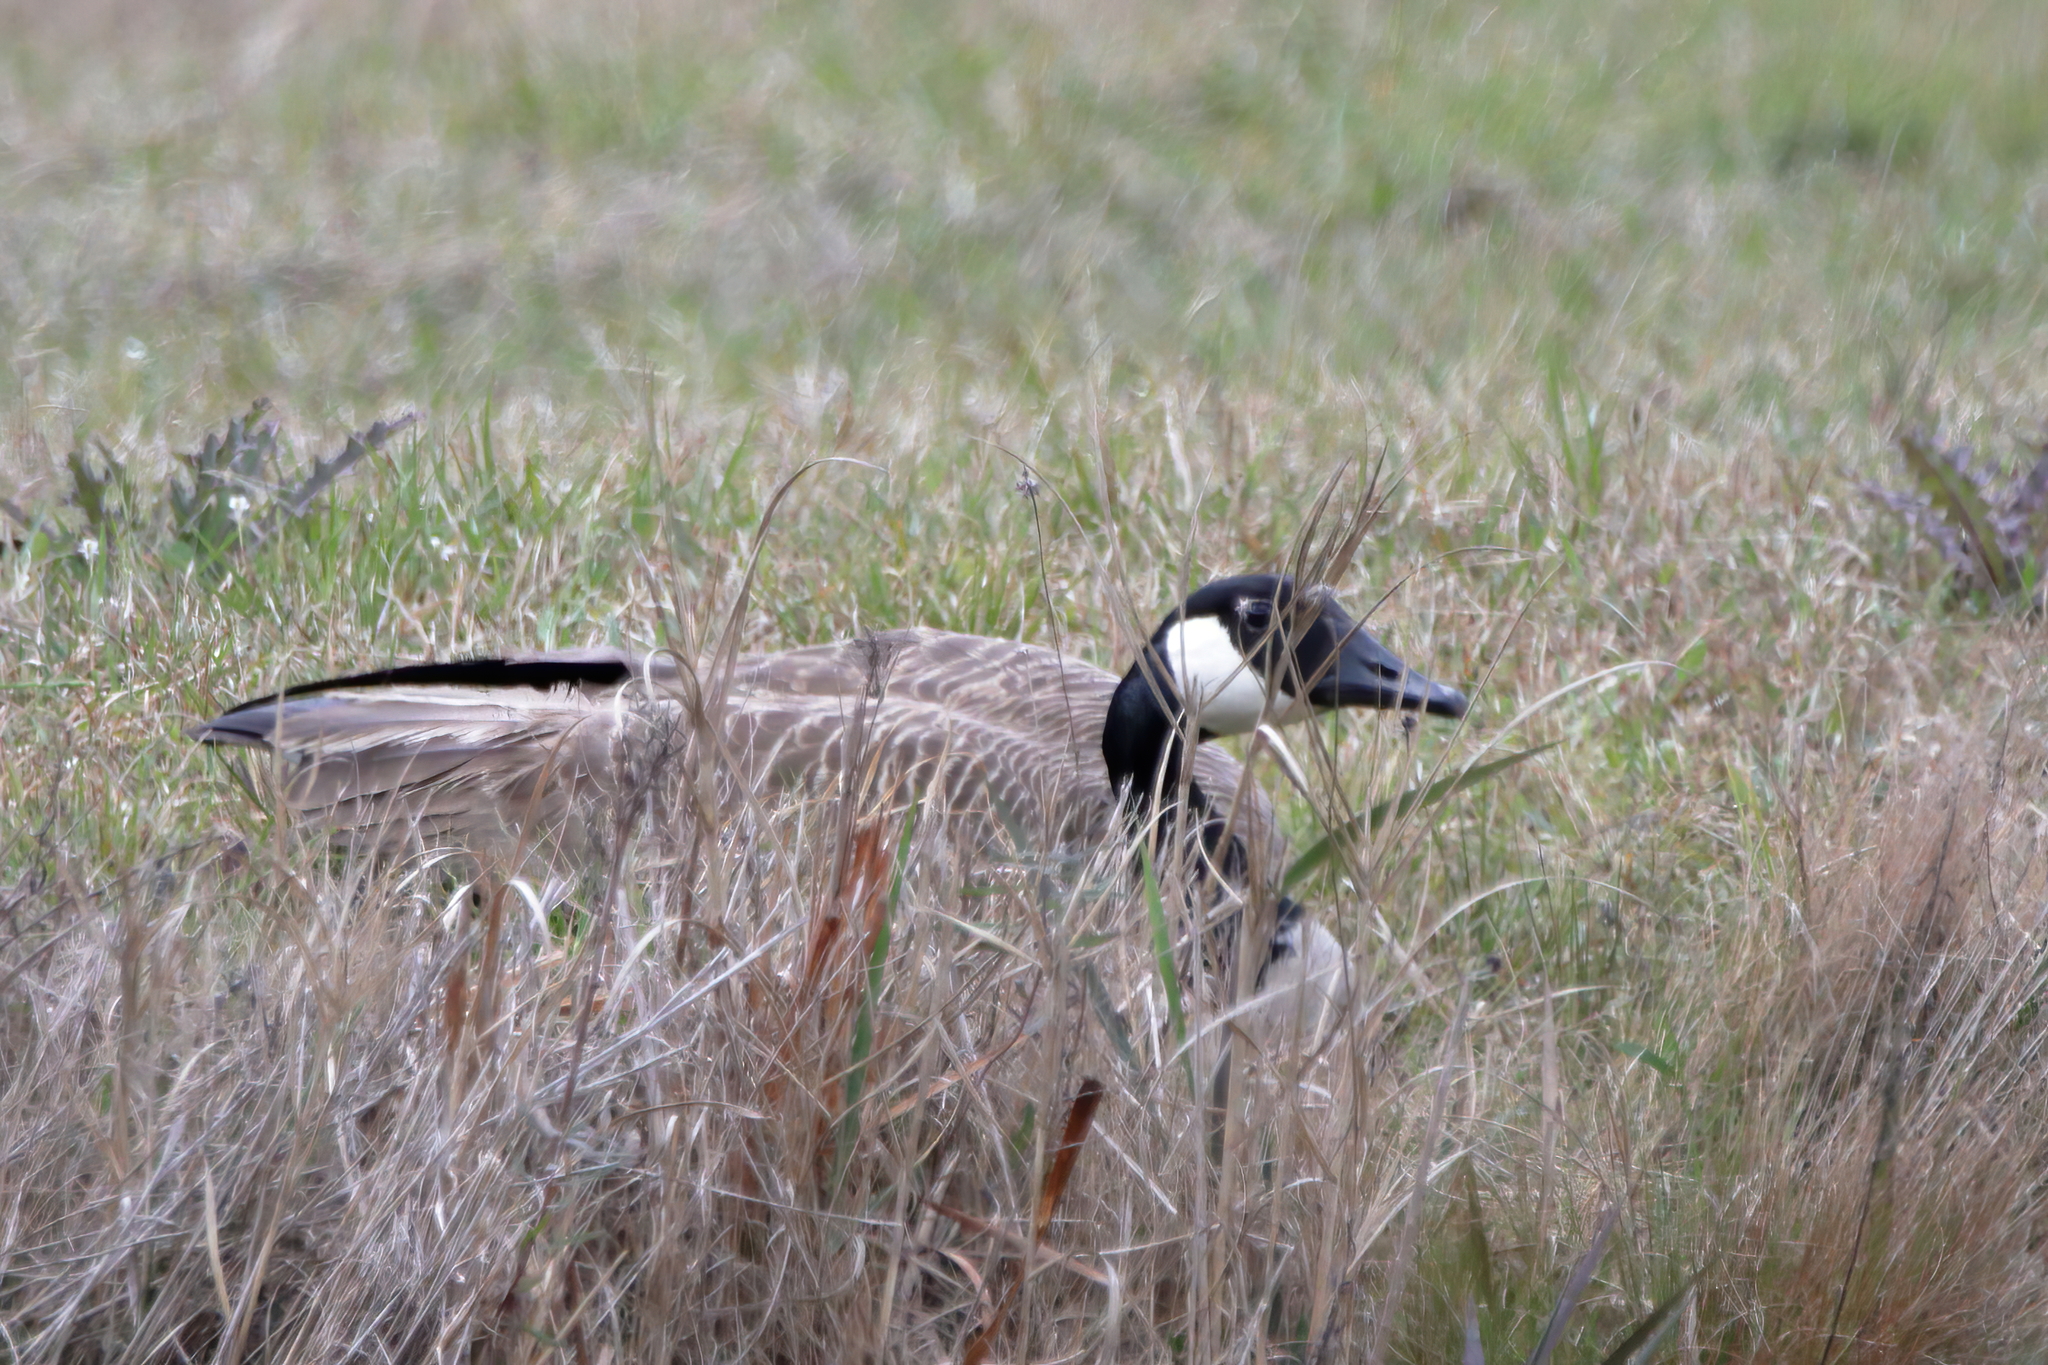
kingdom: Animalia
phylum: Chordata
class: Aves
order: Anseriformes
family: Anatidae
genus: Branta
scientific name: Branta canadensis
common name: Canada goose
